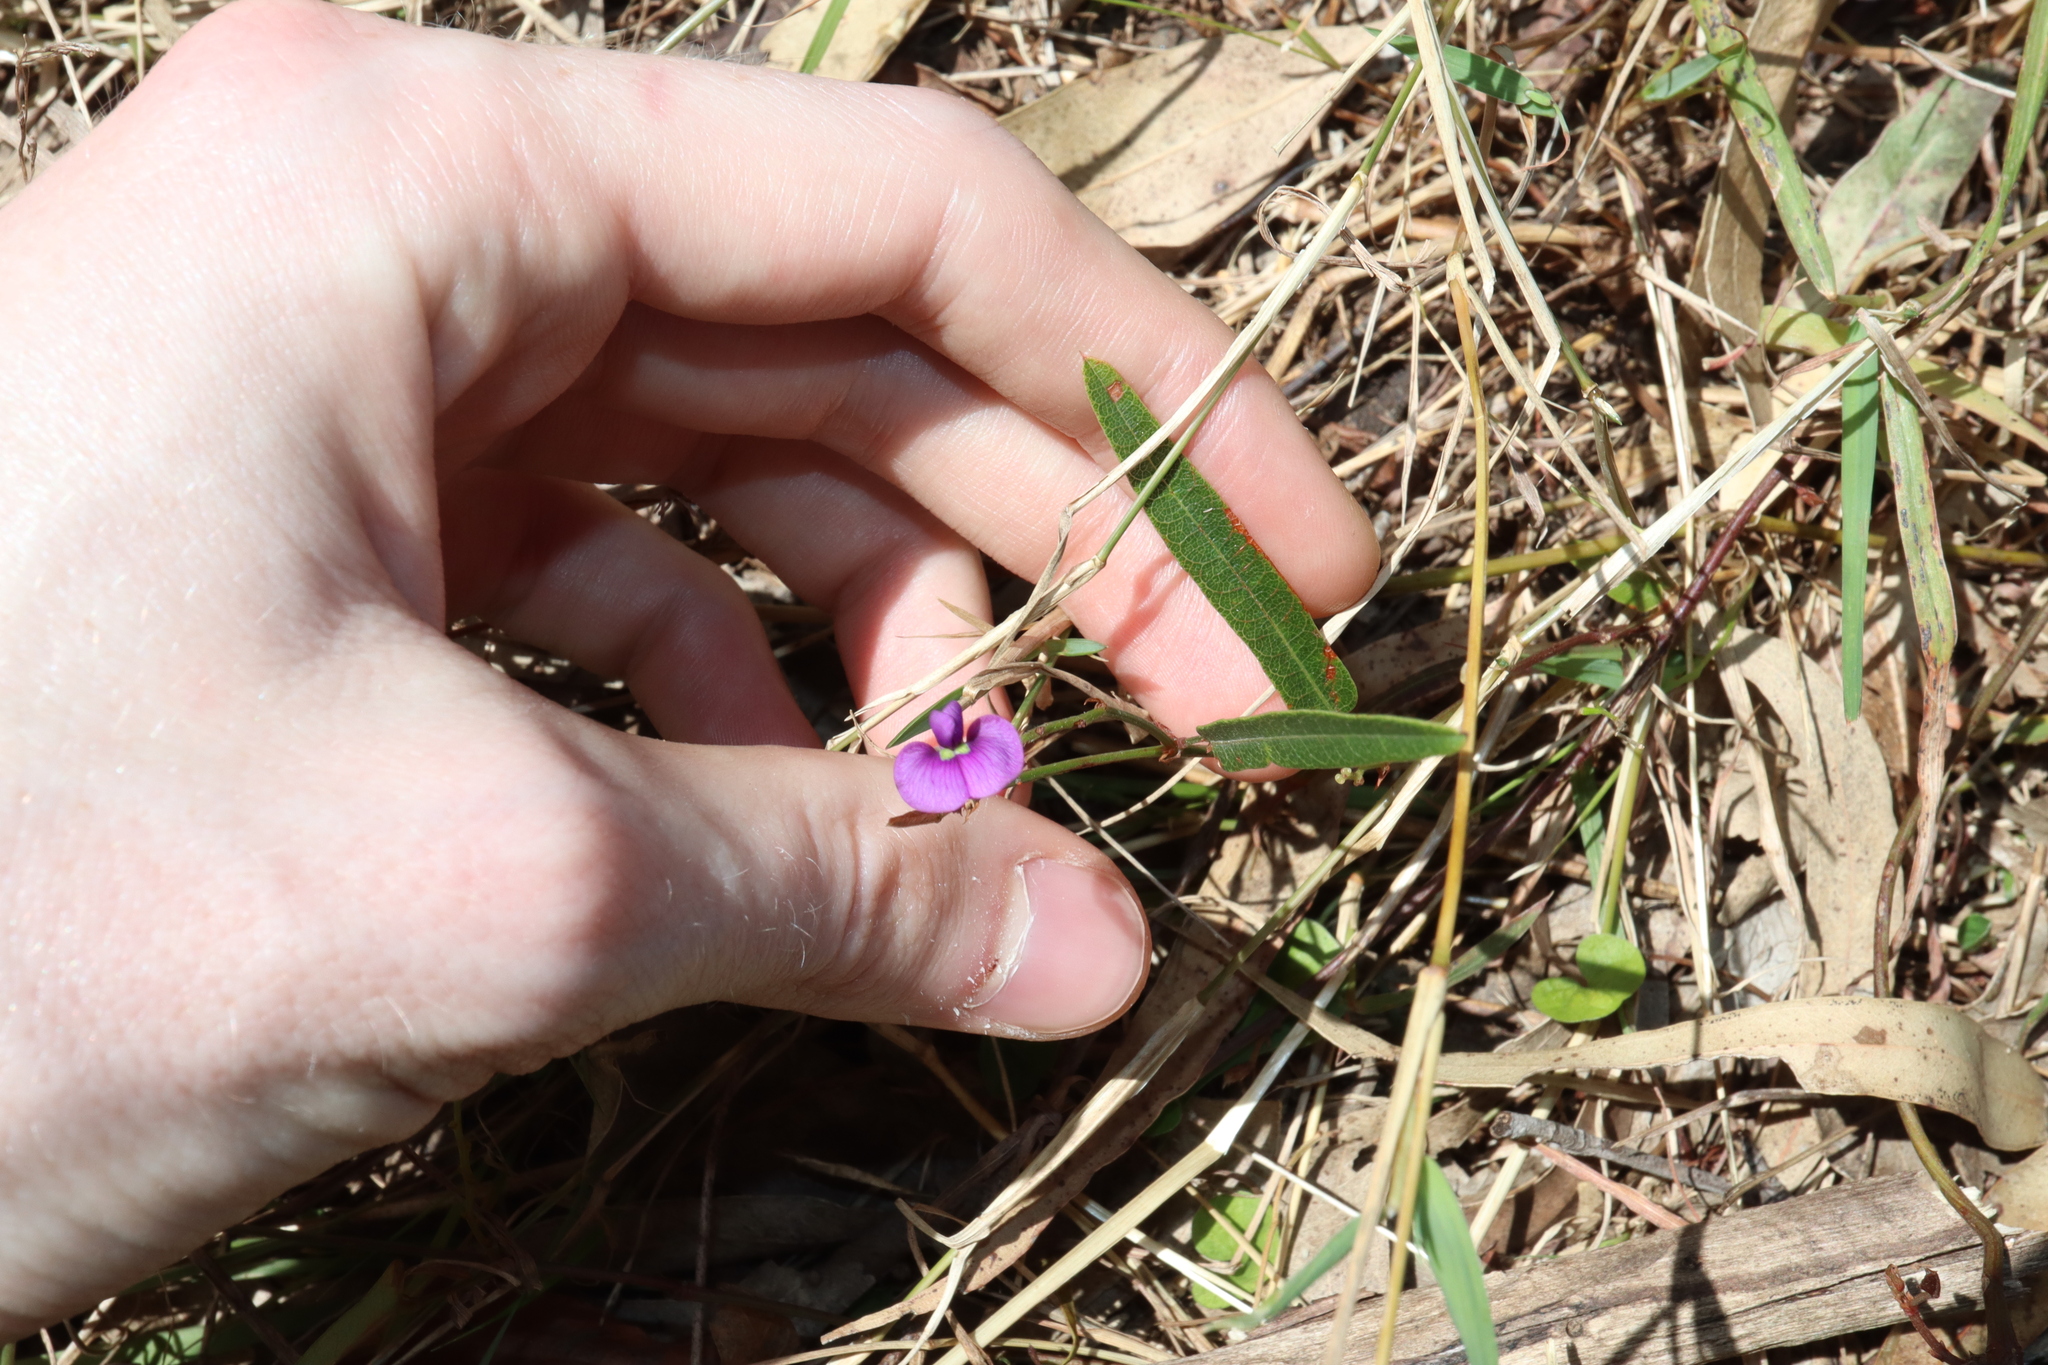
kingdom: Plantae
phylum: Tracheophyta
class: Magnoliopsida
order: Fabales
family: Fabaceae
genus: Hardenbergia
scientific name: Hardenbergia violacea
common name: Coral-pea
